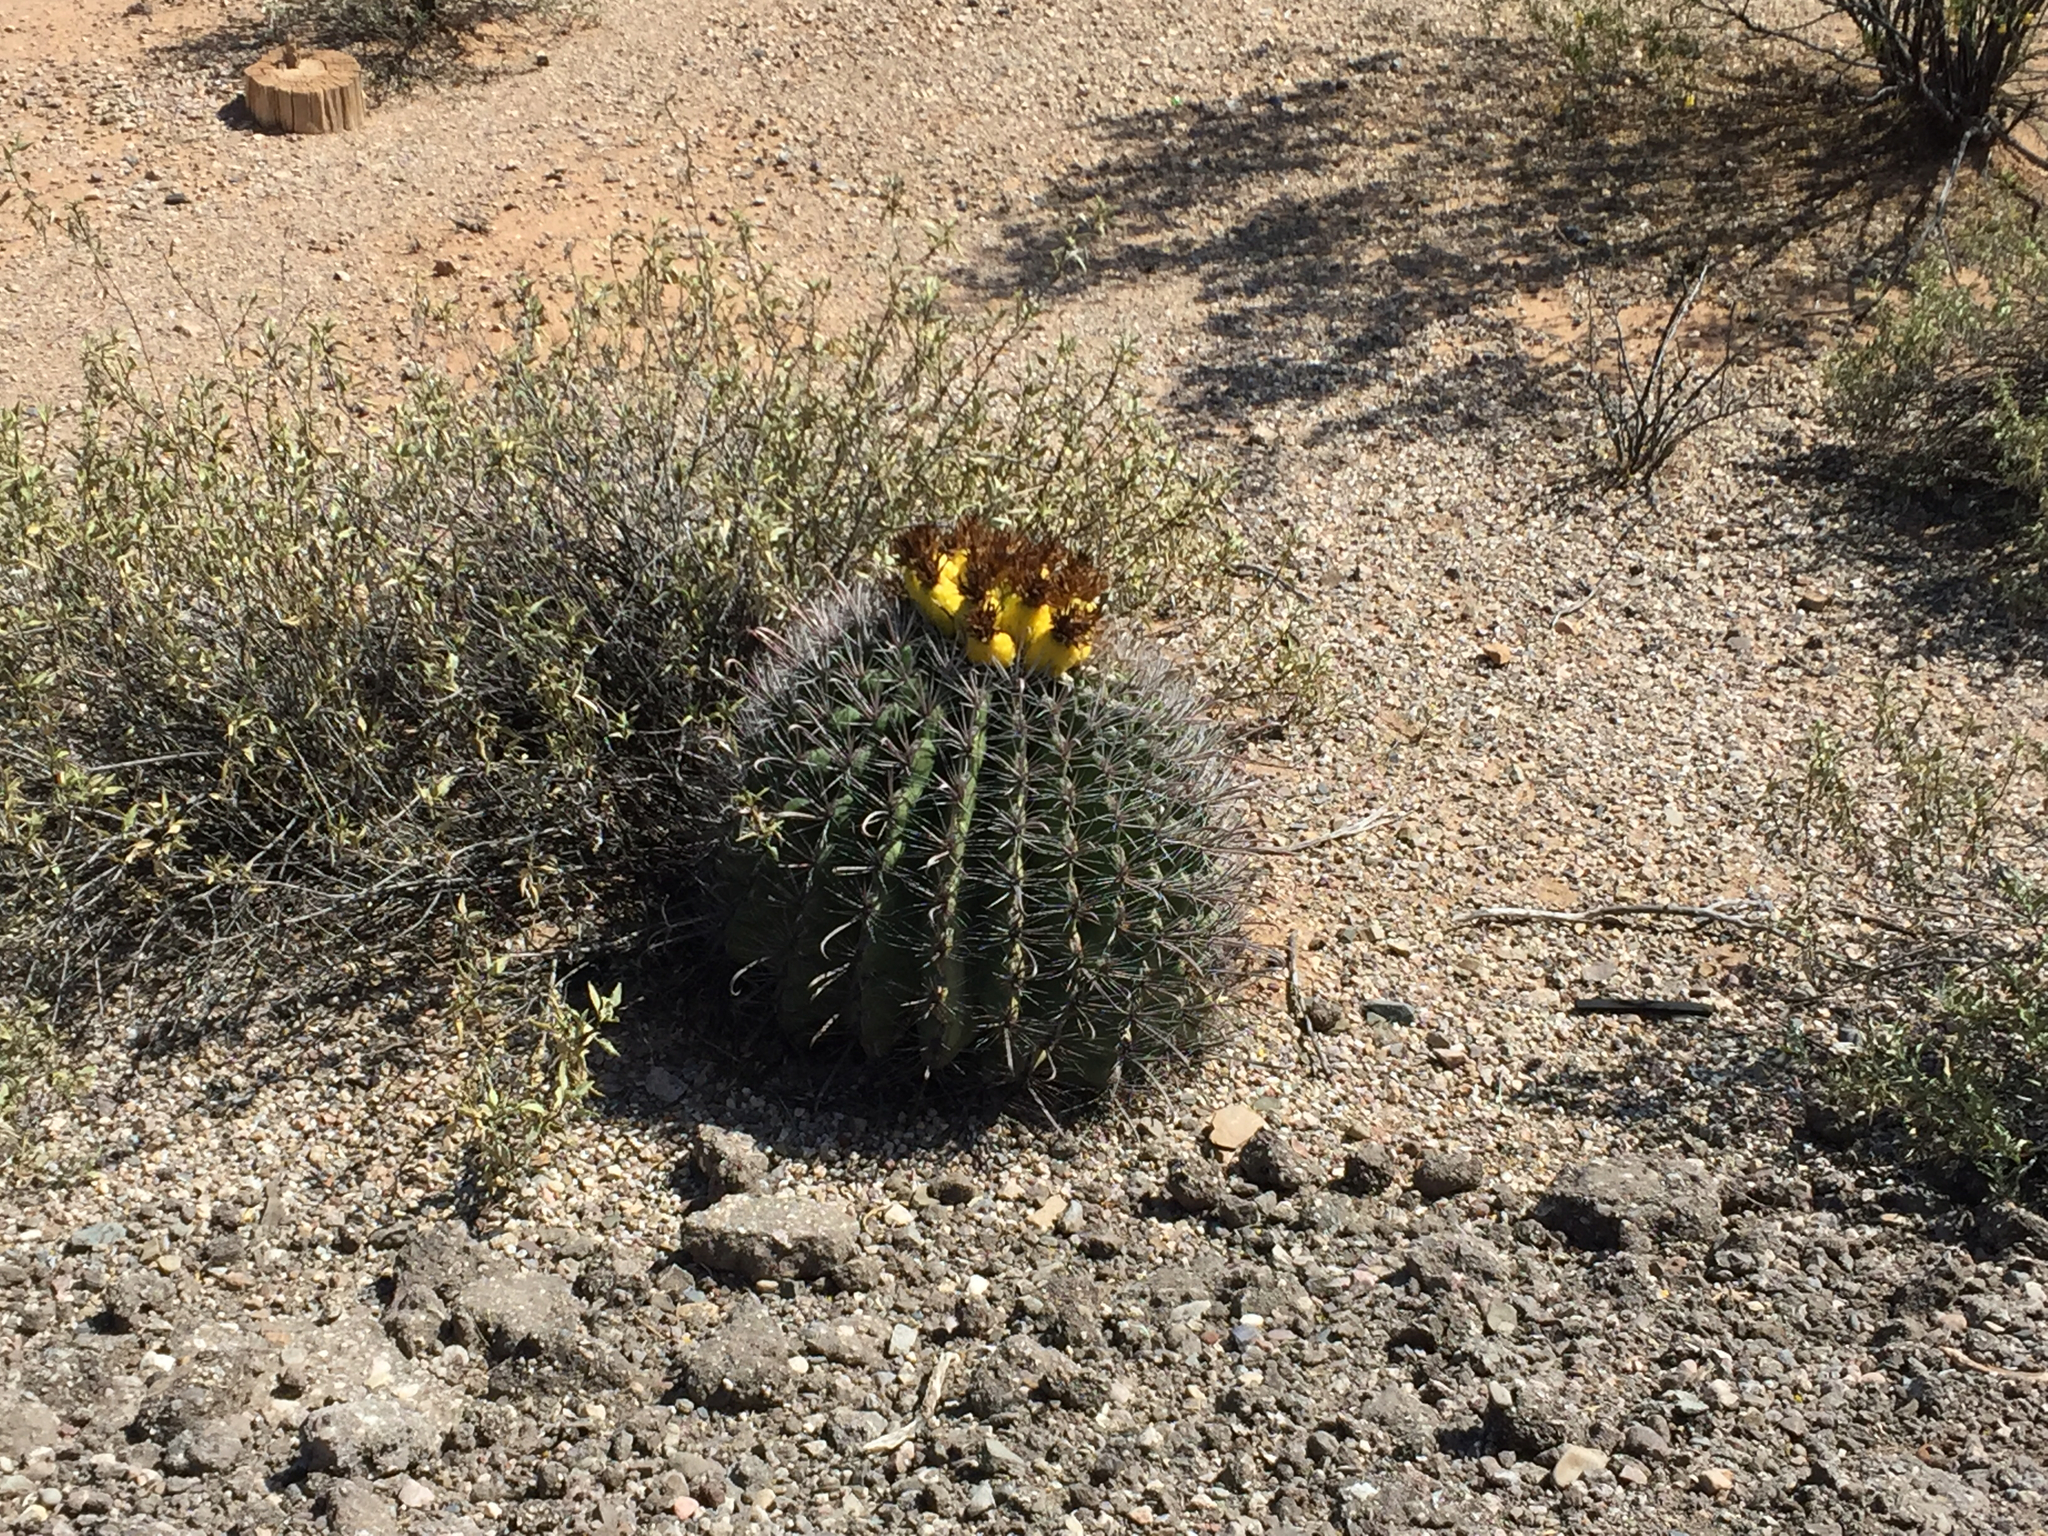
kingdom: Plantae
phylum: Tracheophyta
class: Magnoliopsida
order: Caryophyllales
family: Cactaceae
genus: Ferocactus
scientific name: Ferocactus wislizeni
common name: Candy barrel cactus
